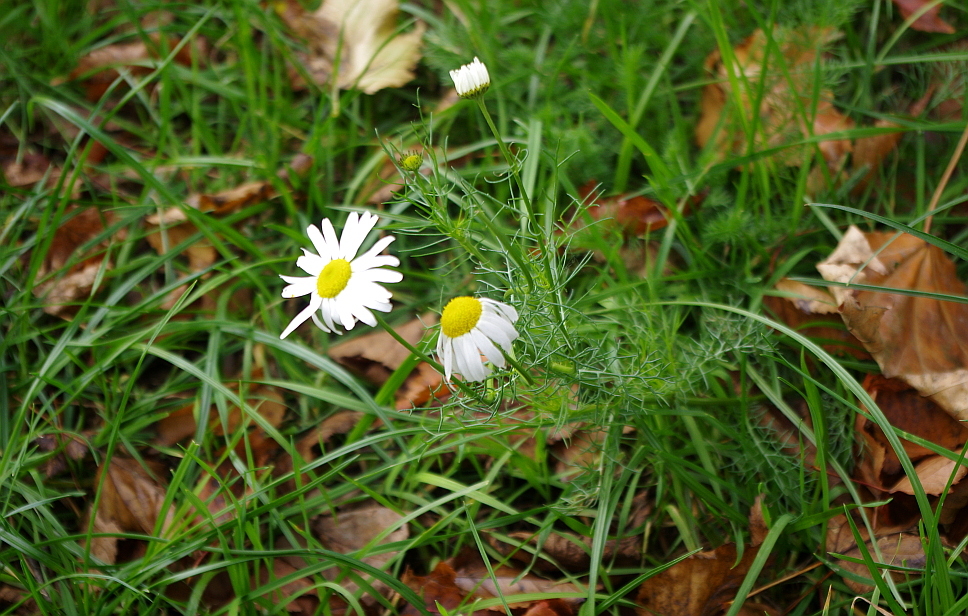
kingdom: Plantae
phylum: Tracheophyta
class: Magnoliopsida
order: Asterales
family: Asteraceae
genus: Tripleurospermum
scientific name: Tripleurospermum inodorum
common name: Scentless mayweed
